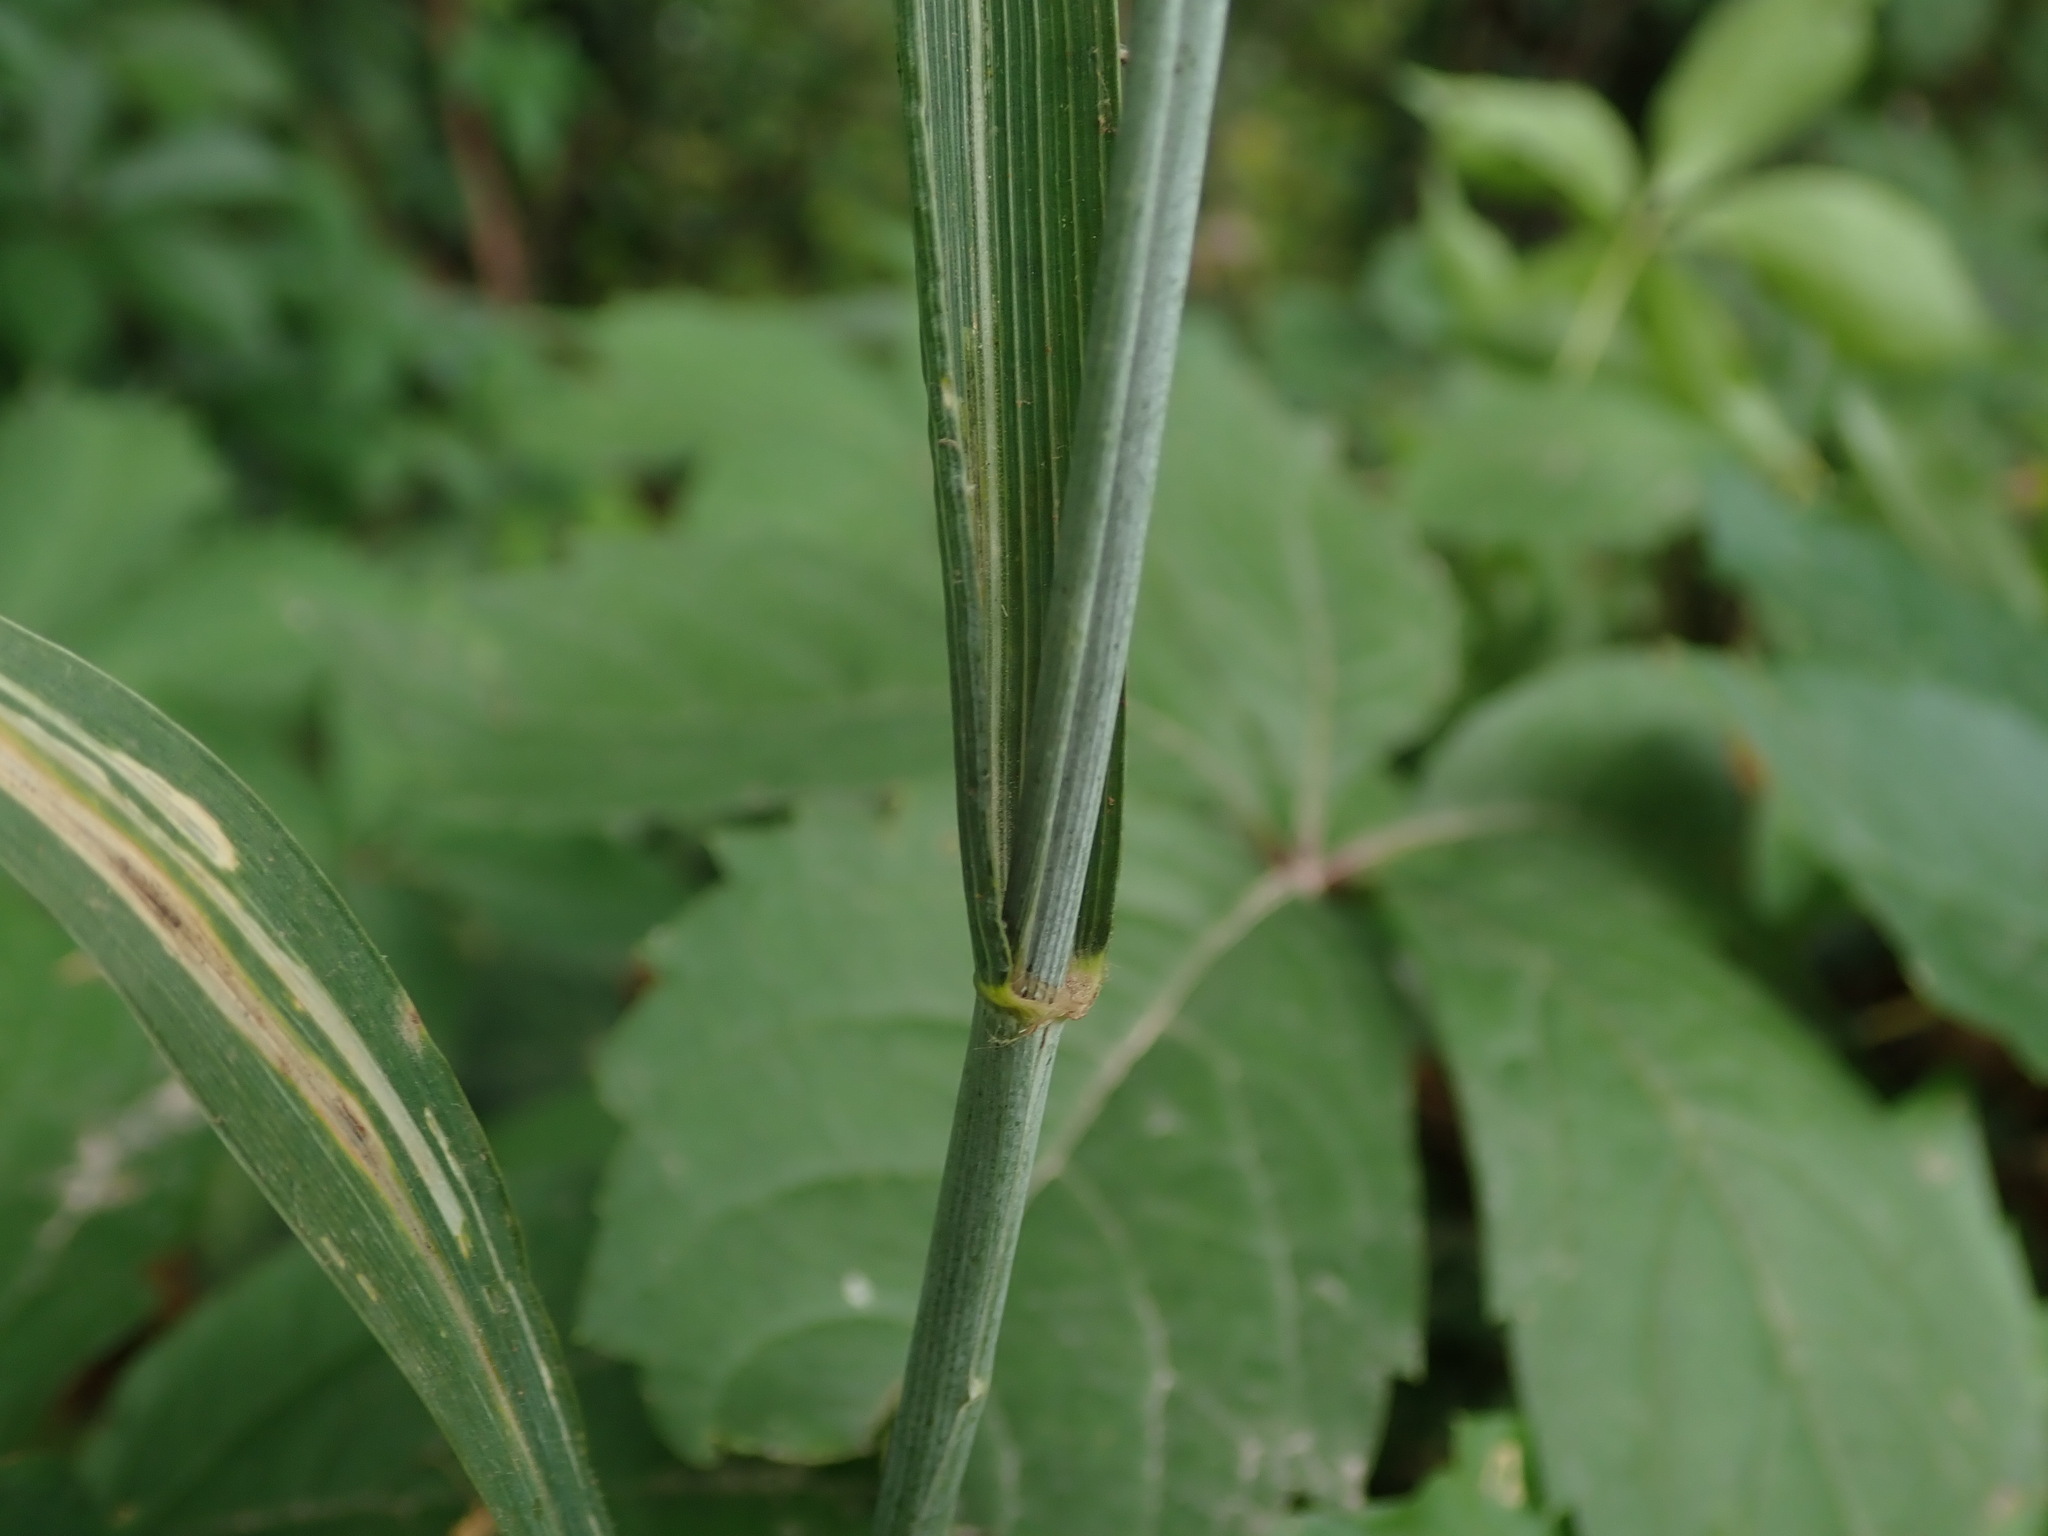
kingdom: Plantae
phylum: Tracheophyta
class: Liliopsida
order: Poales
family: Poaceae
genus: Triticum
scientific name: Triticum aestivum
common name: Common wheat
